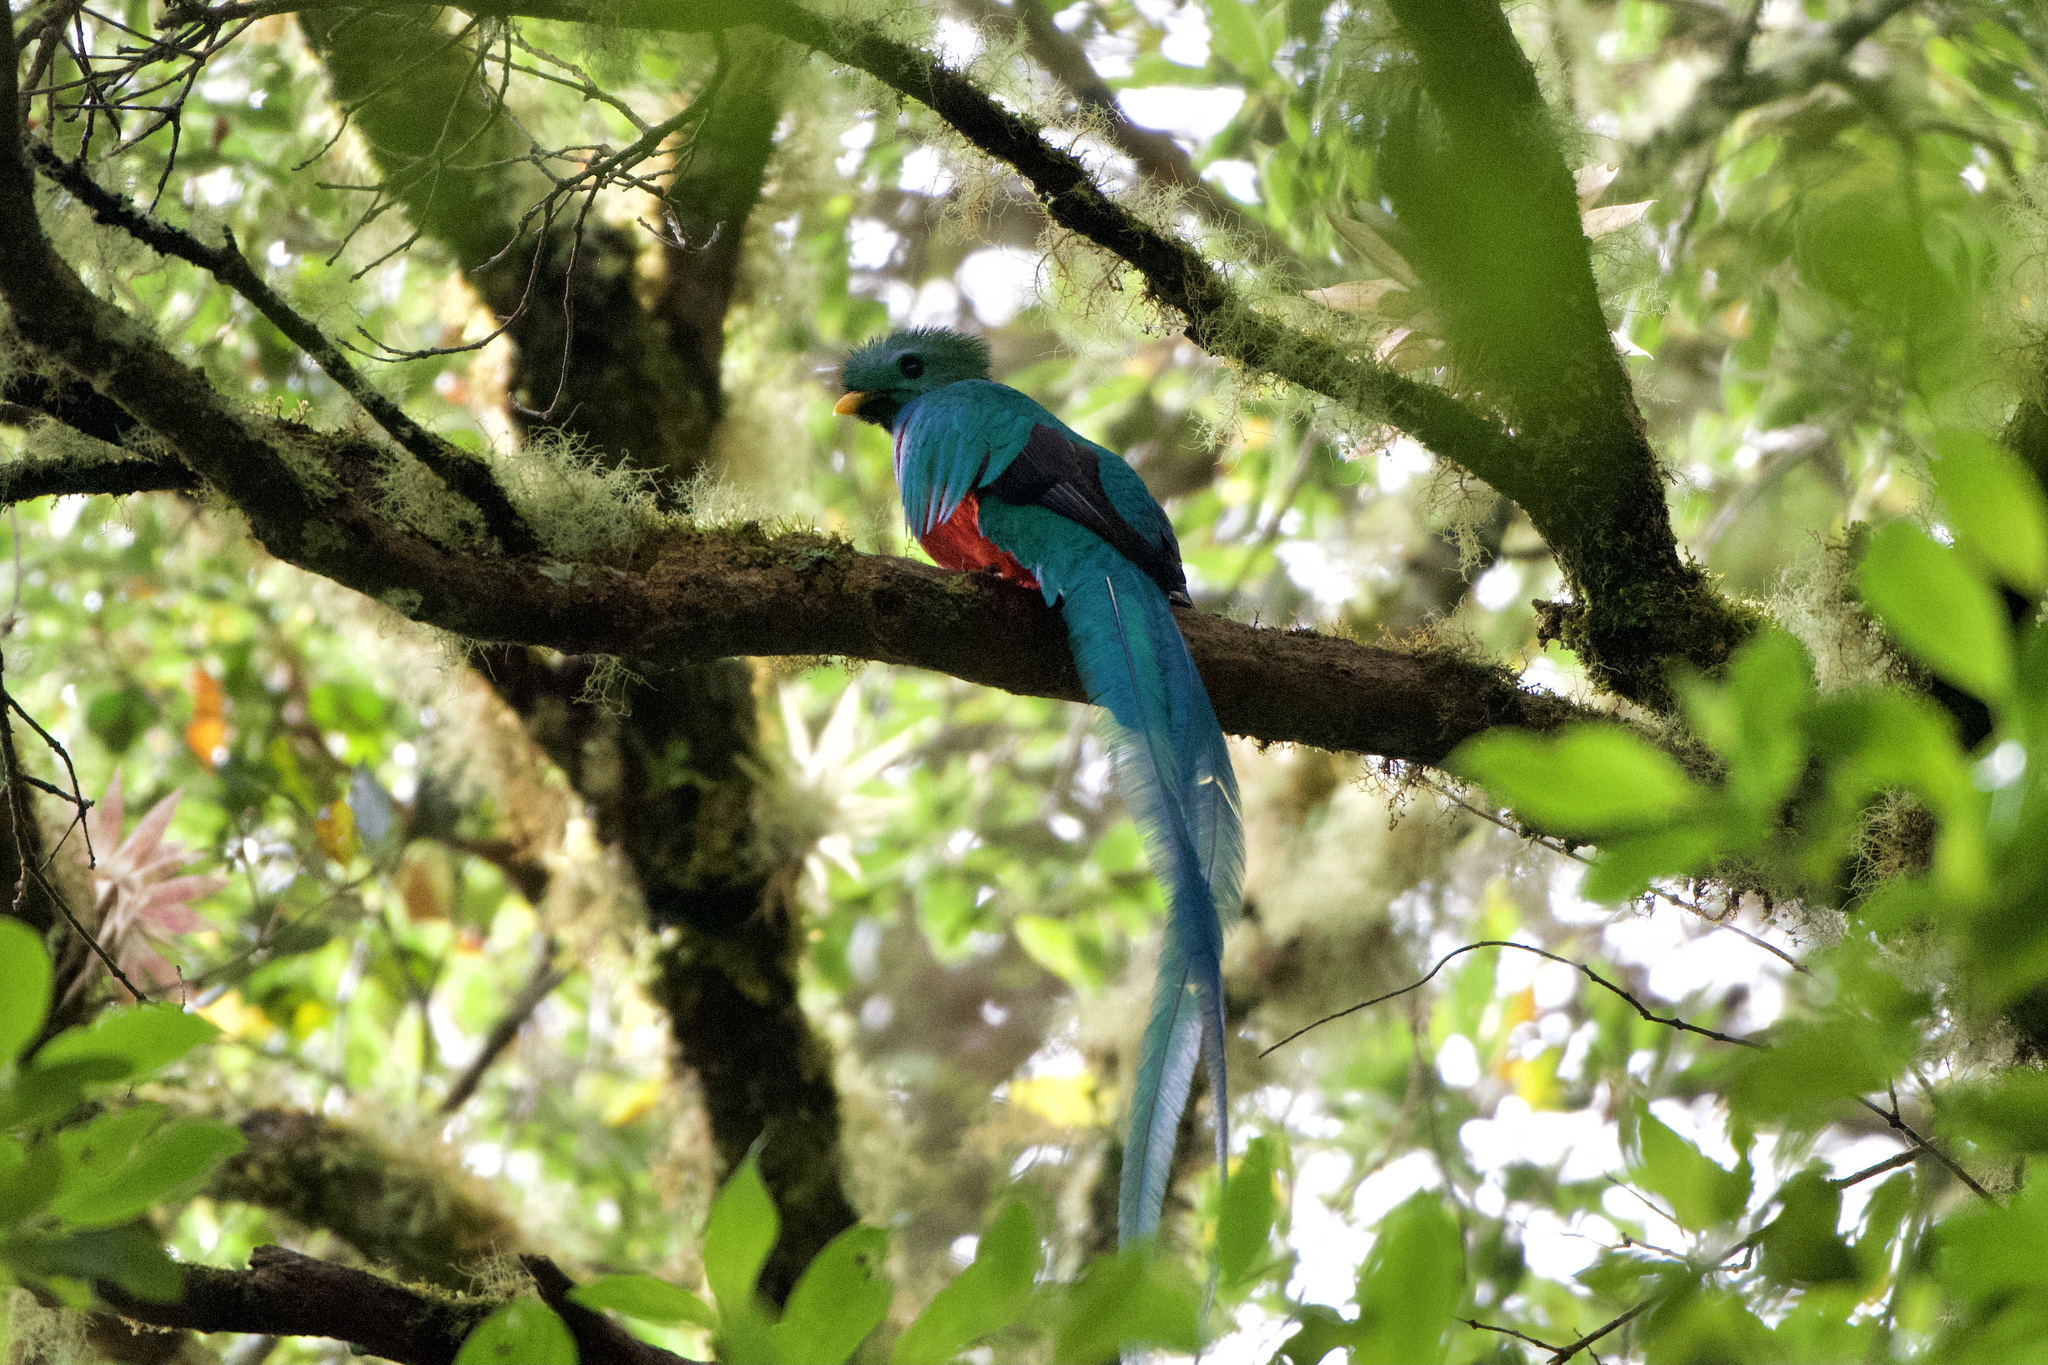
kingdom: Animalia
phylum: Chordata
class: Aves
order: Trogoniformes
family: Trogonidae
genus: Pharomachrus
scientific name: Pharomachrus mocinno
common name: Resplendent quetzal
